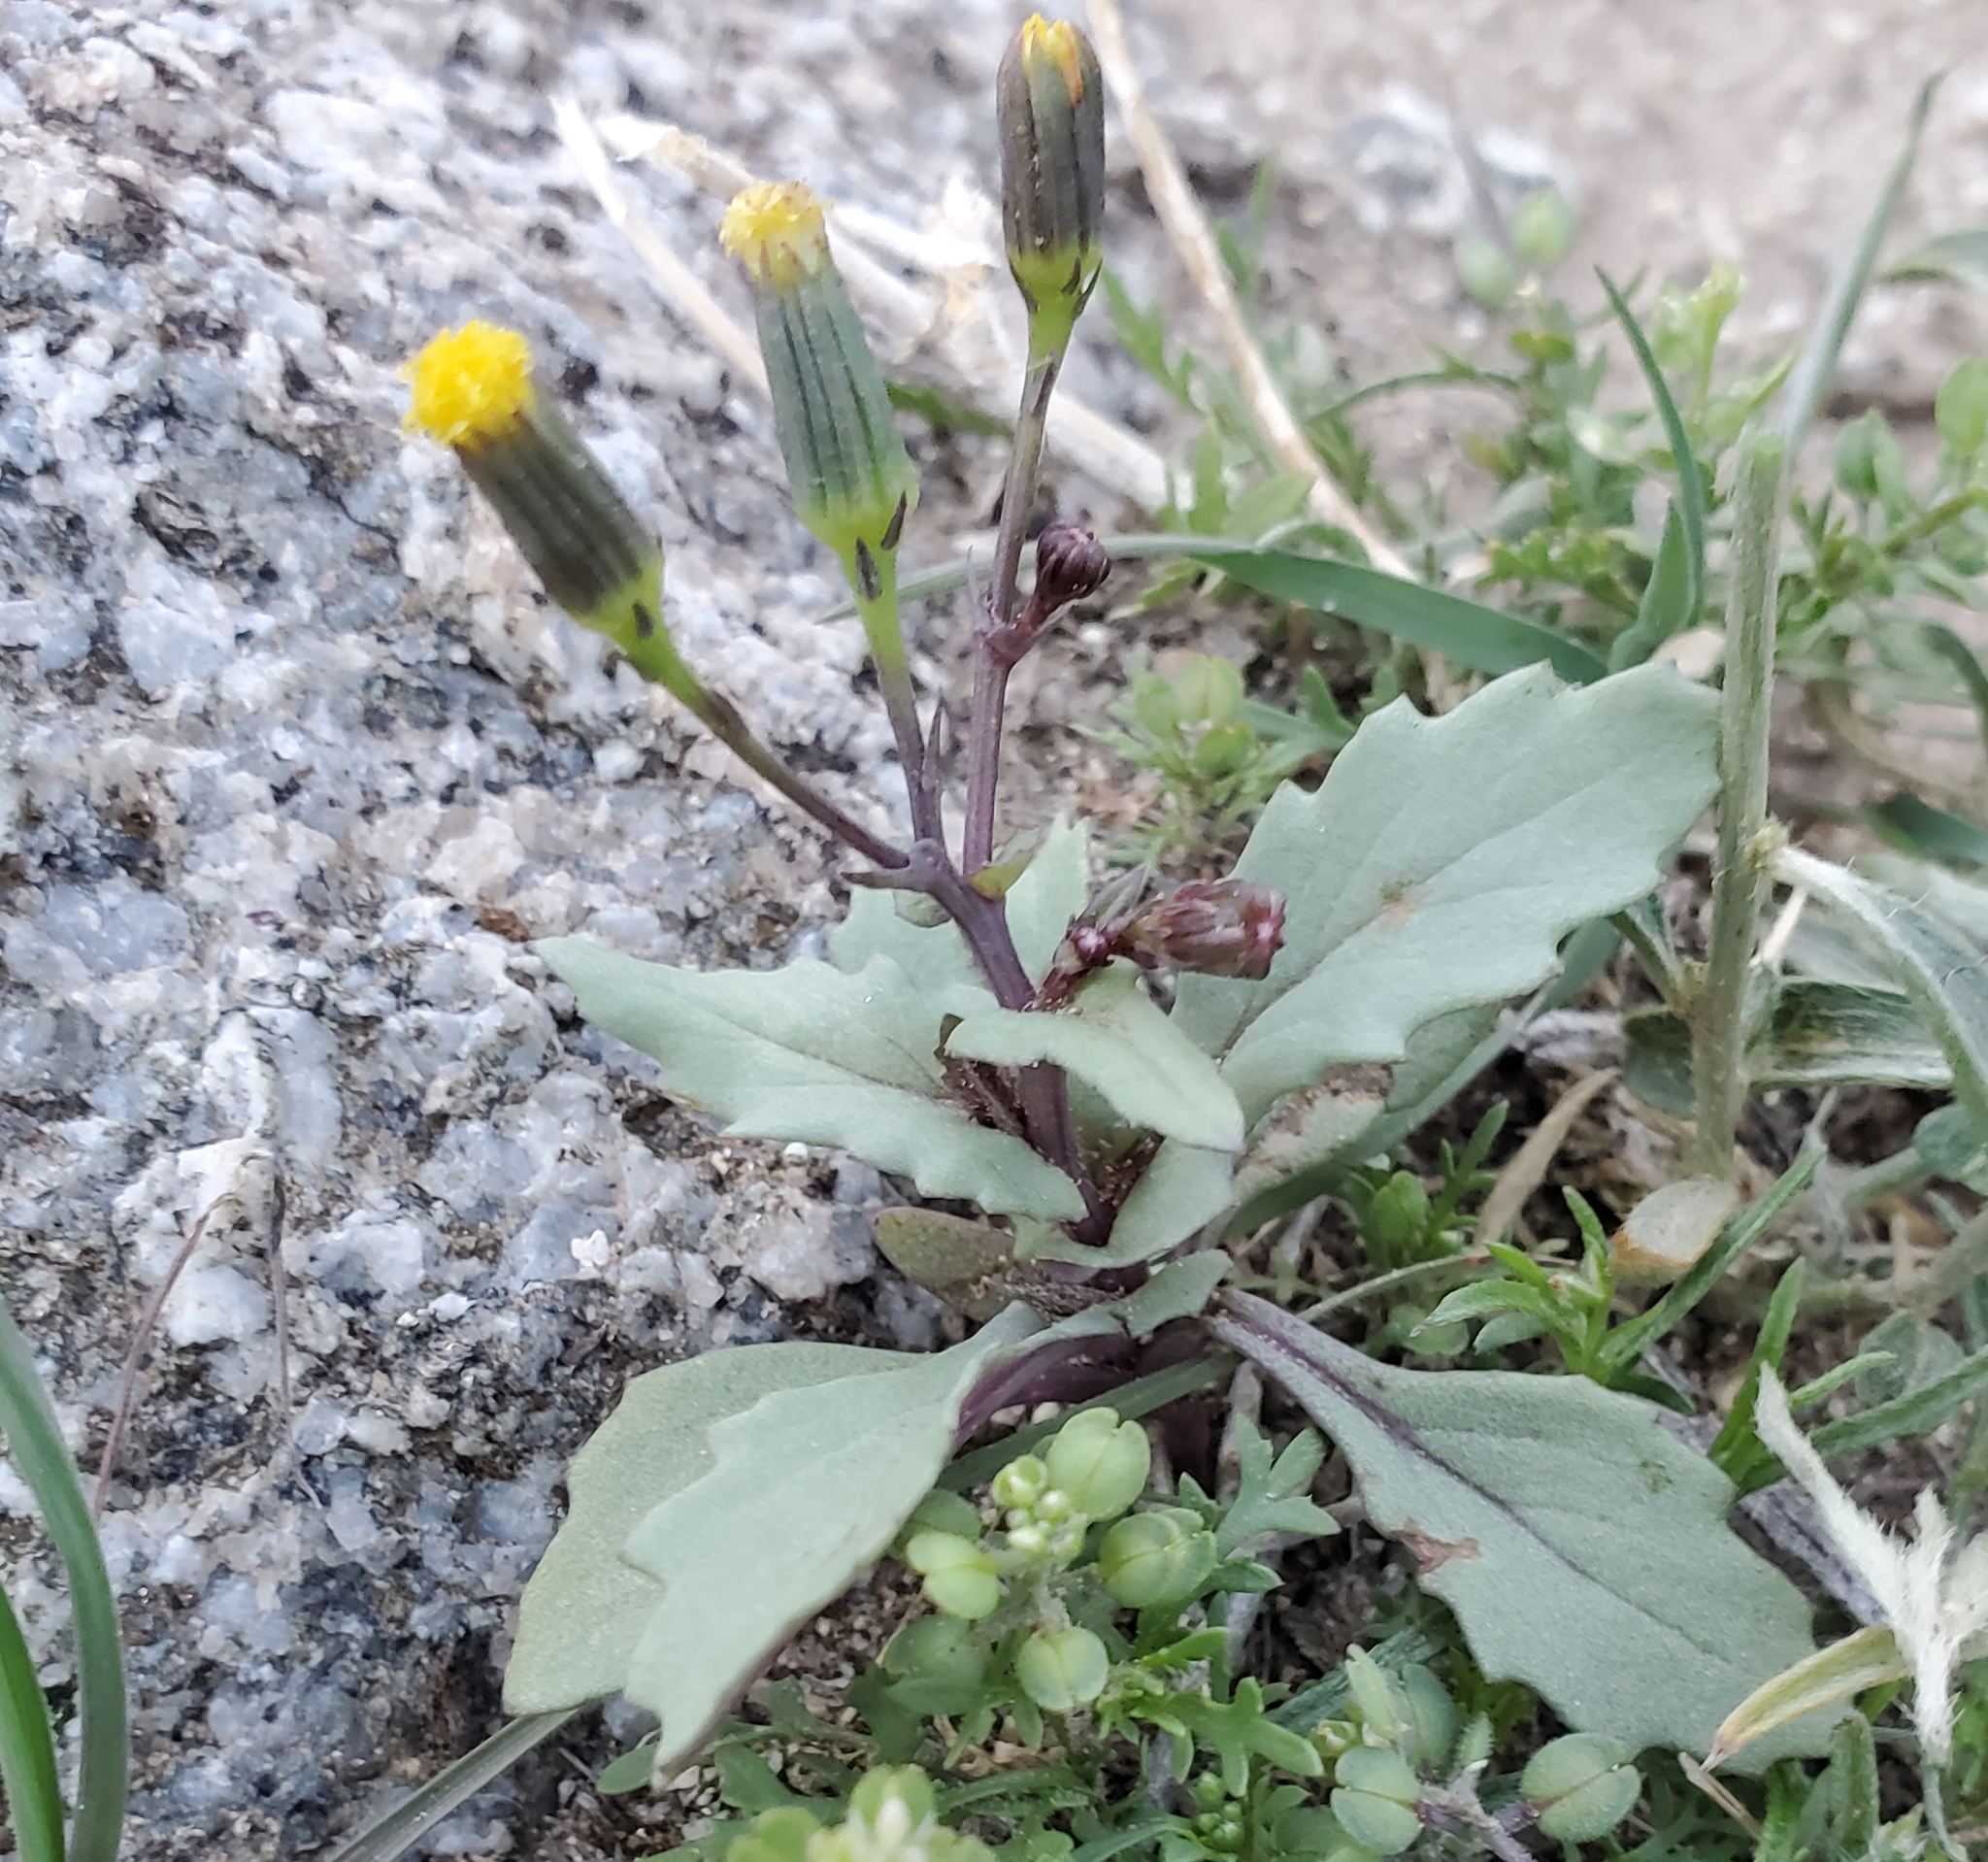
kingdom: Plantae
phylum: Tracheophyta
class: Magnoliopsida
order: Asterales
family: Asteraceae
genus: Senecio
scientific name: Senecio mohavensis
